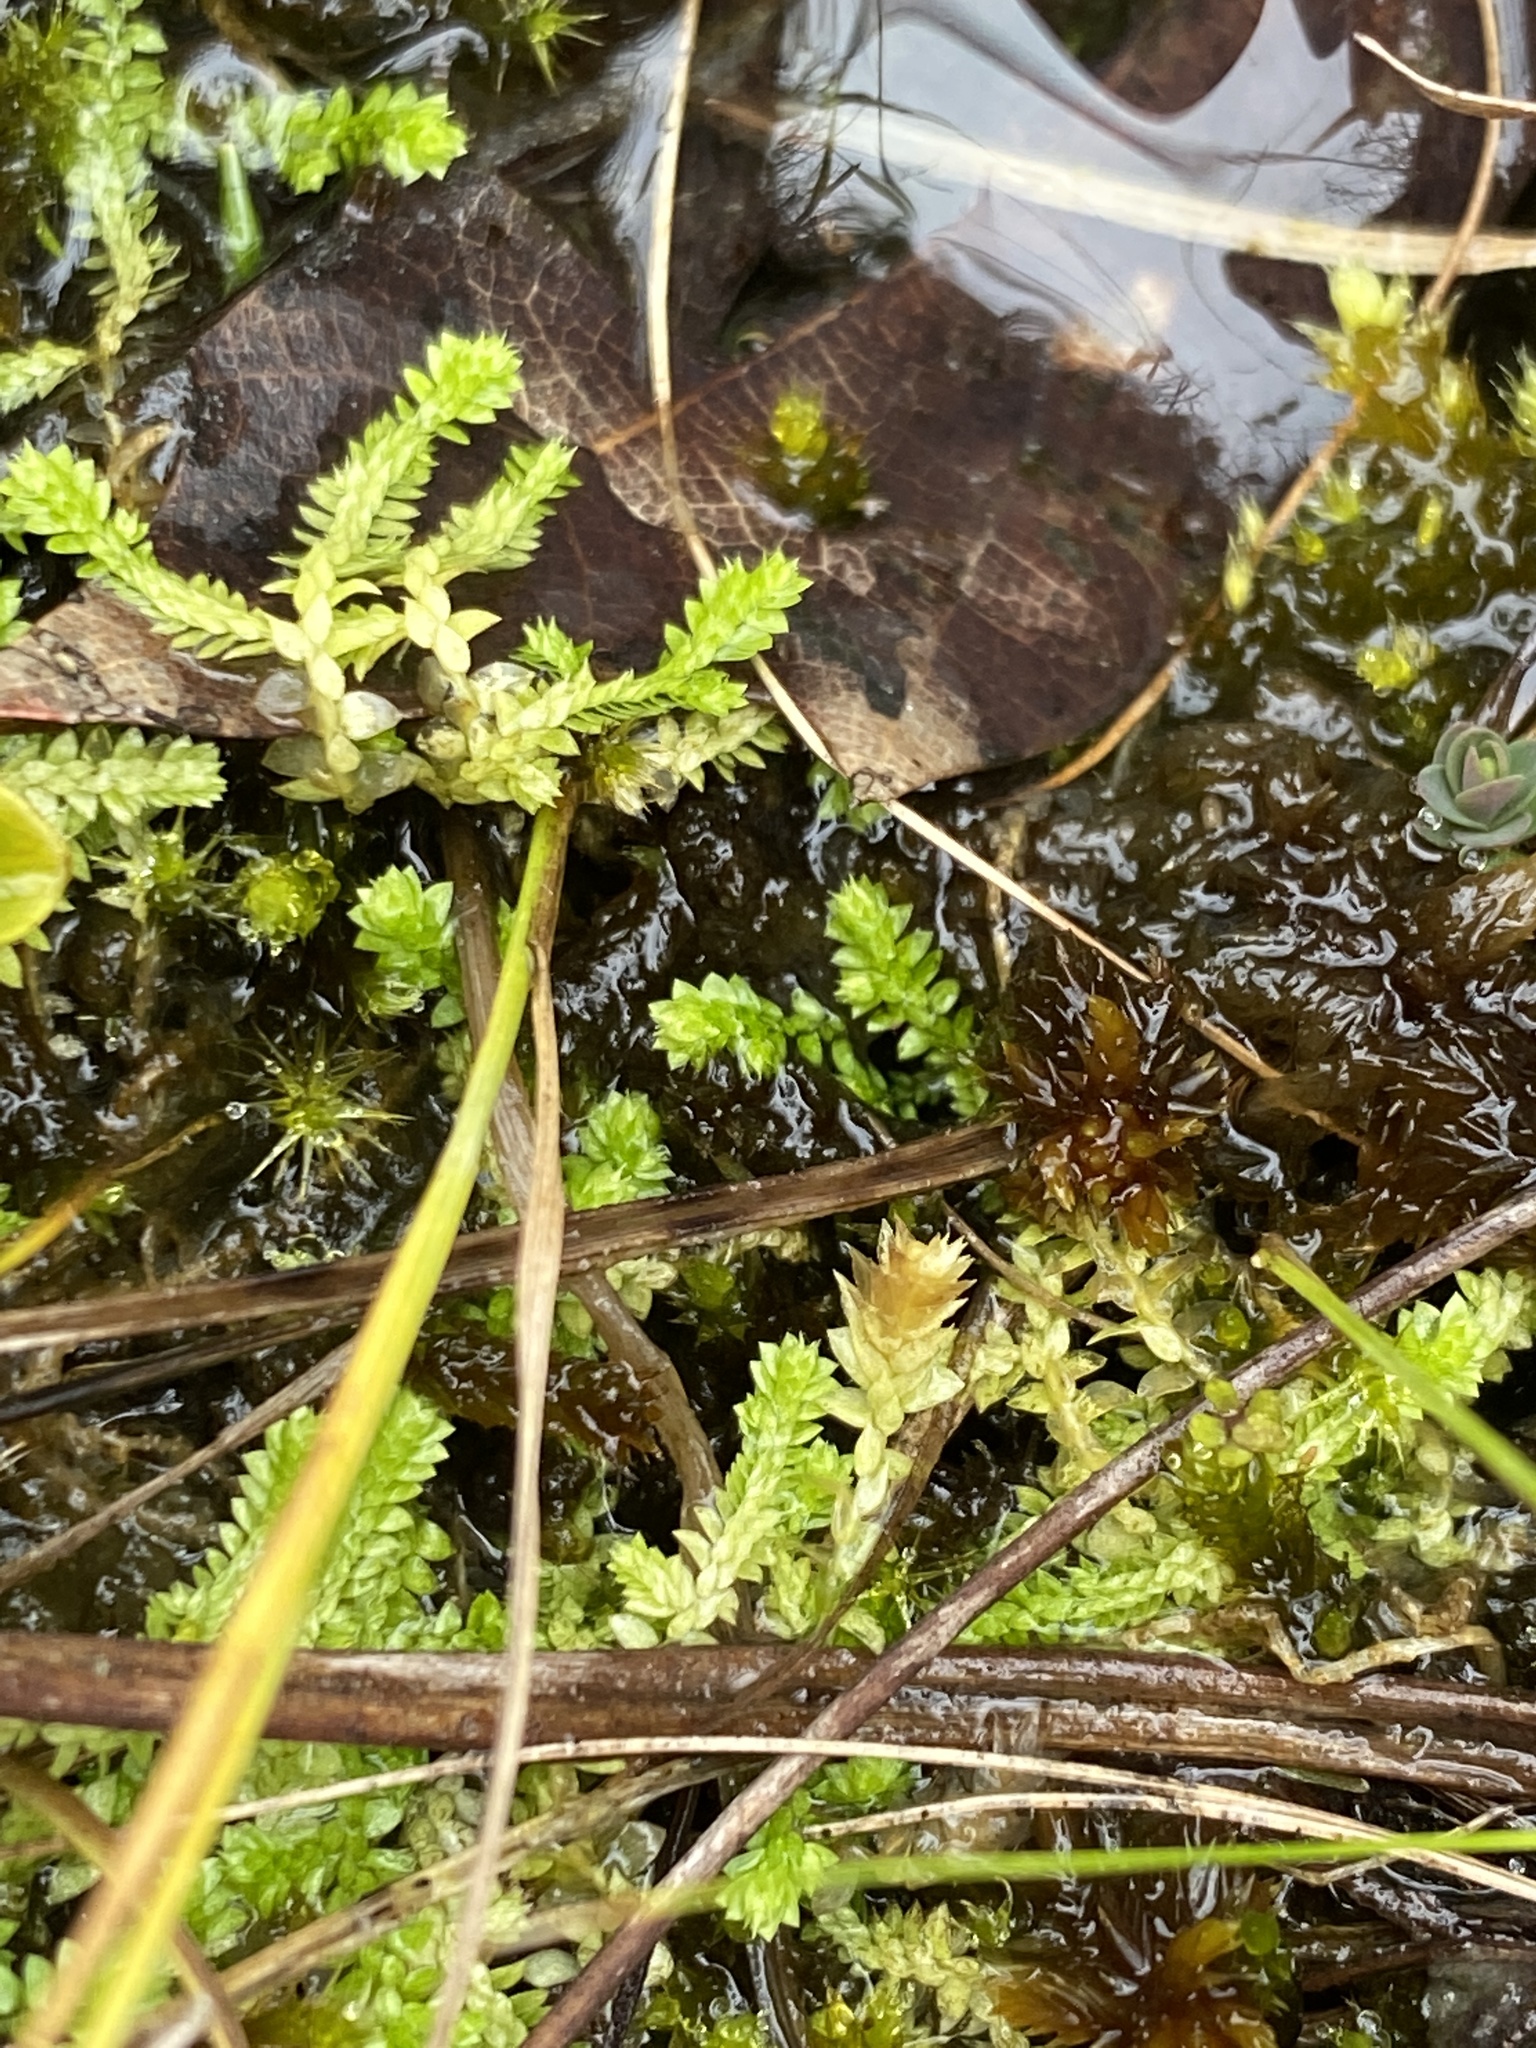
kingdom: Plantae
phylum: Tracheophyta
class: Lycopodiopsida
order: Selaginellales
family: Selaginellaceae
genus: Selaginella
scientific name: Selaginella apoda
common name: Creeping spikemoss
